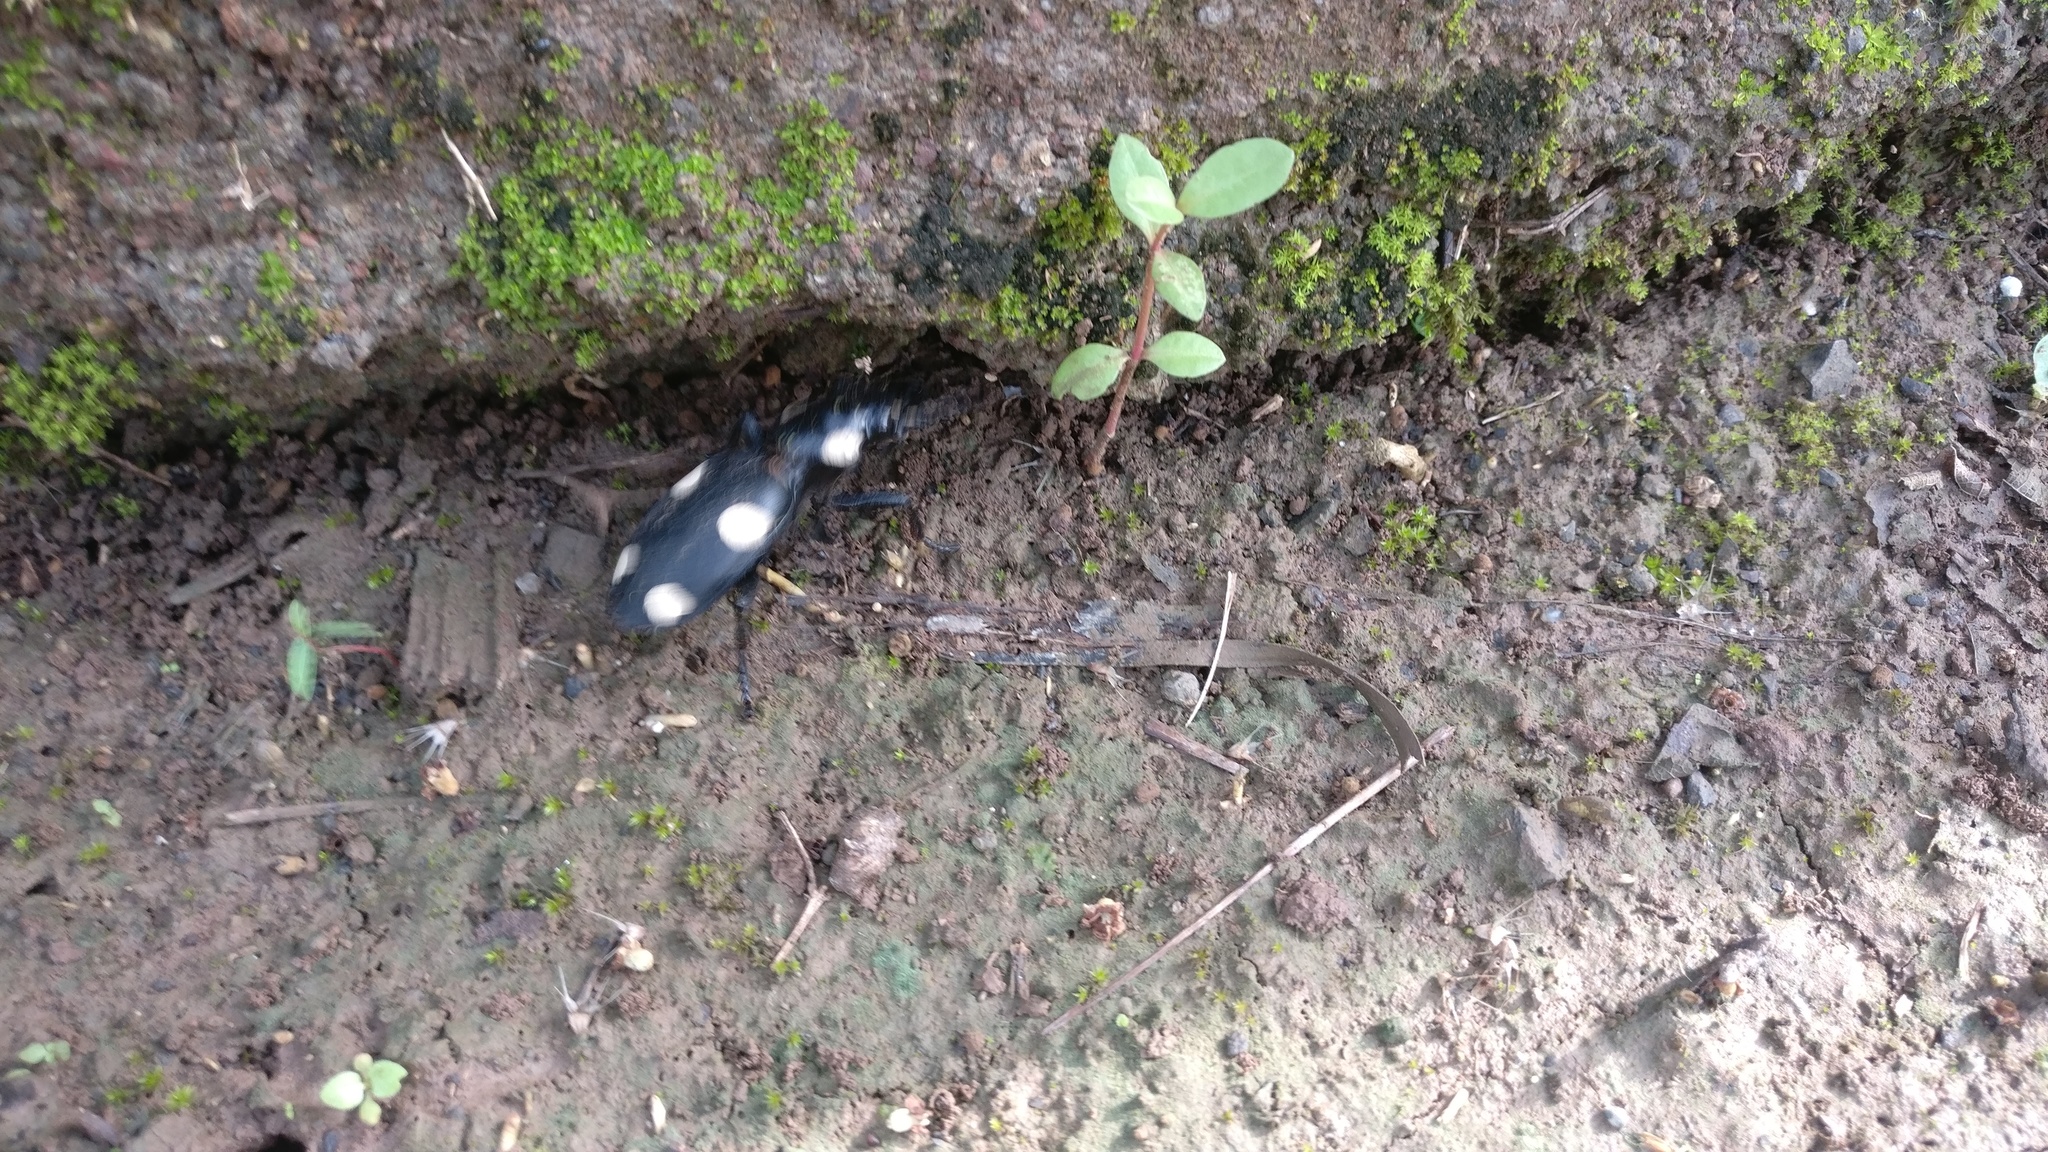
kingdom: Animalia
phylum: Arthropoda
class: Insecta
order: Coleoptera
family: Carabidae
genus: Anthia
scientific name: Anthia sexguttata
